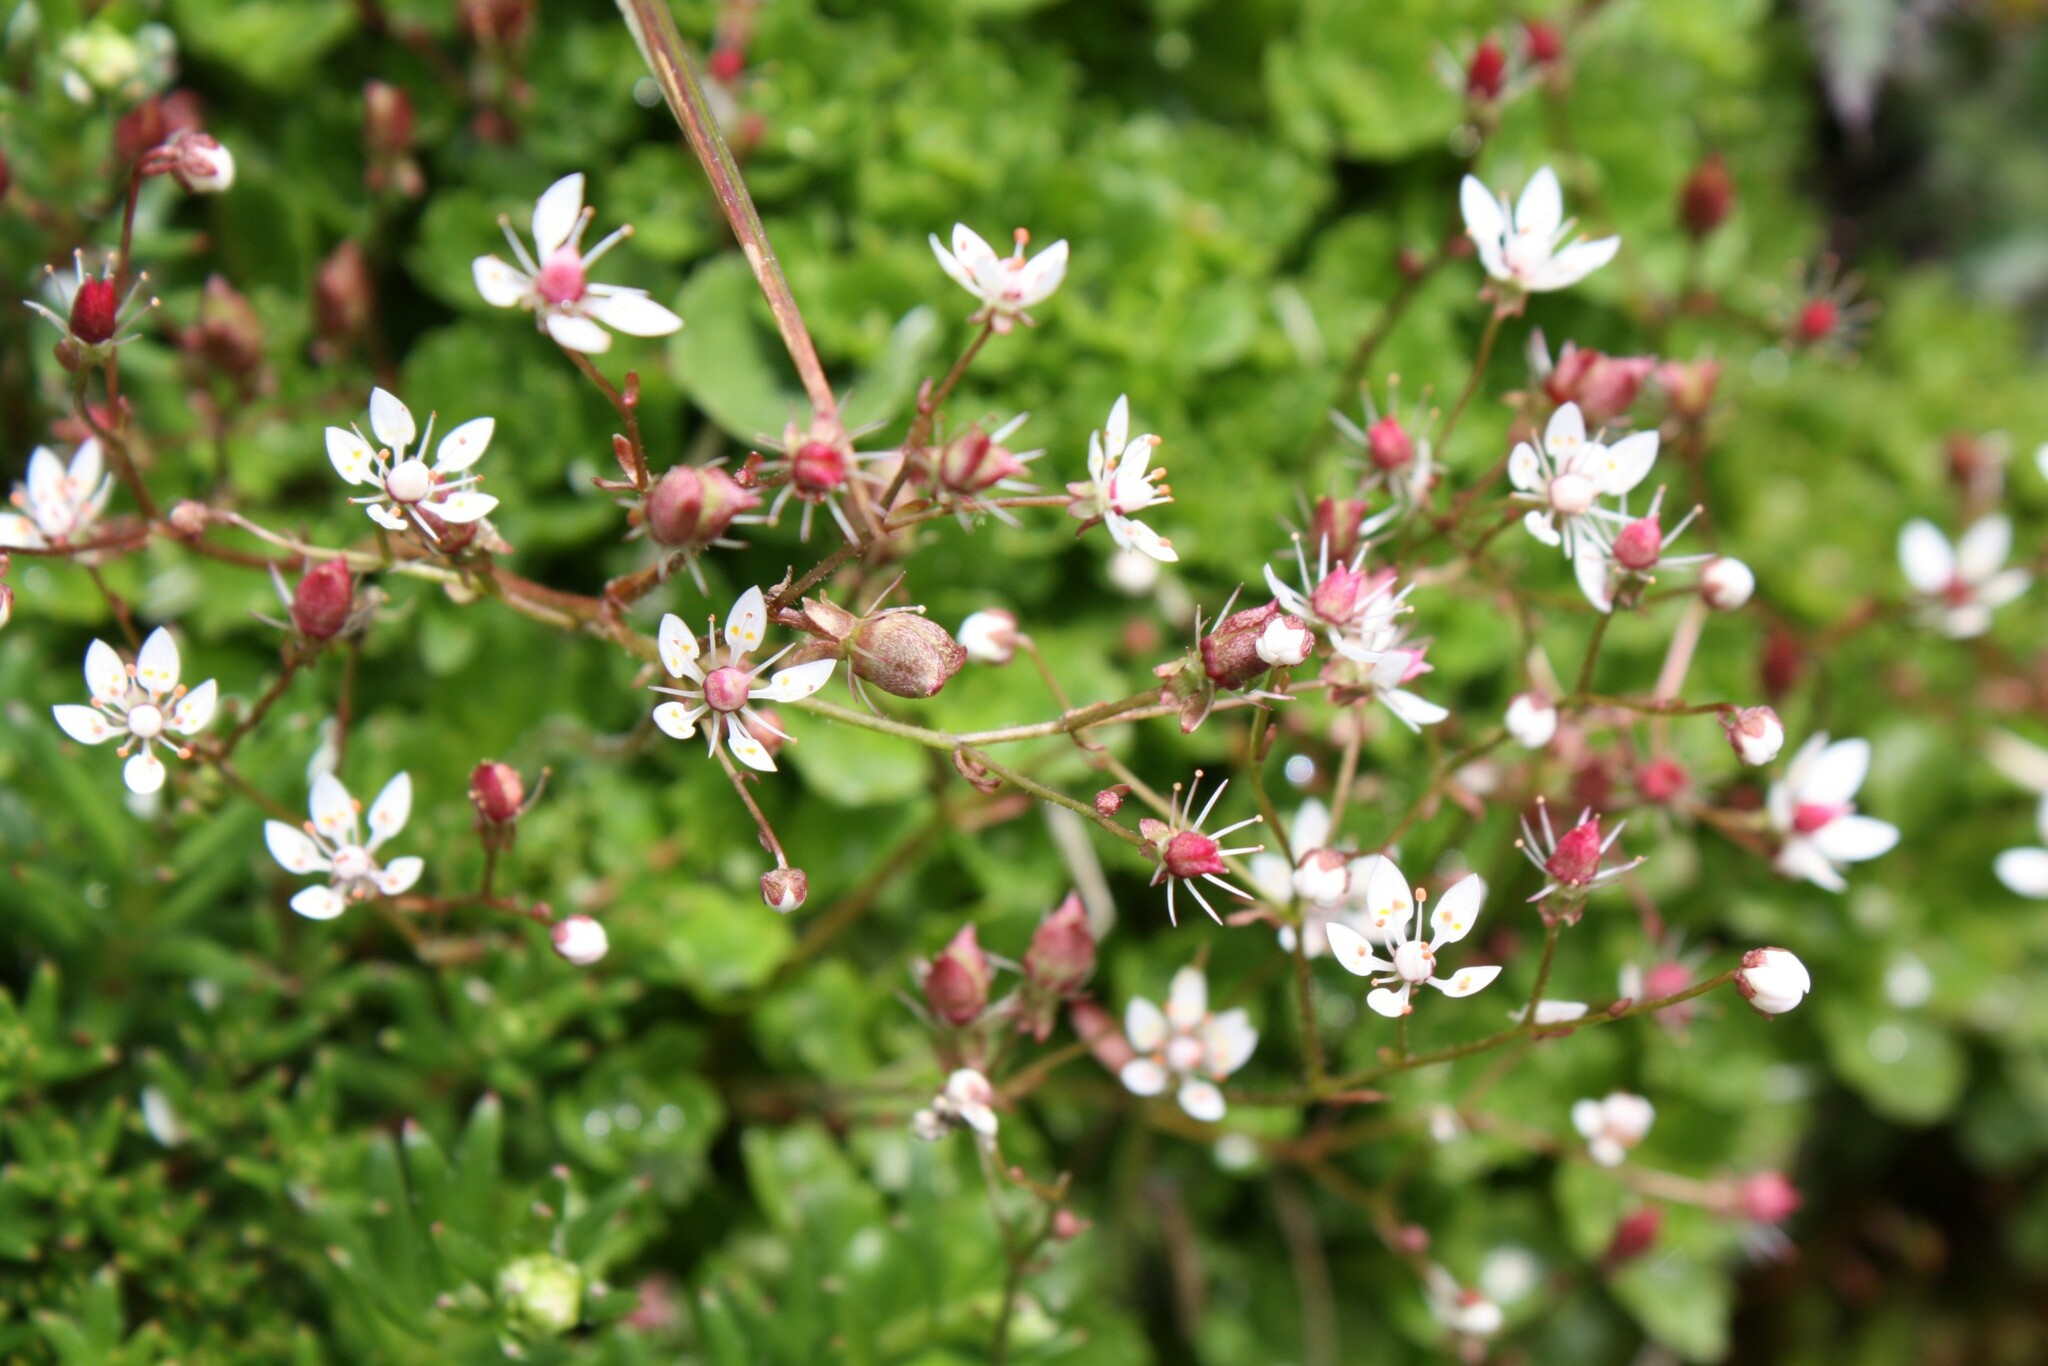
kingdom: Plantae
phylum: Tracheophyta
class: Magnoliopsida
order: Saxifragales
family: Saxifragaceae
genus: Micranthes
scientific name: Micranthes stellaris
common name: Starry saxifrage
